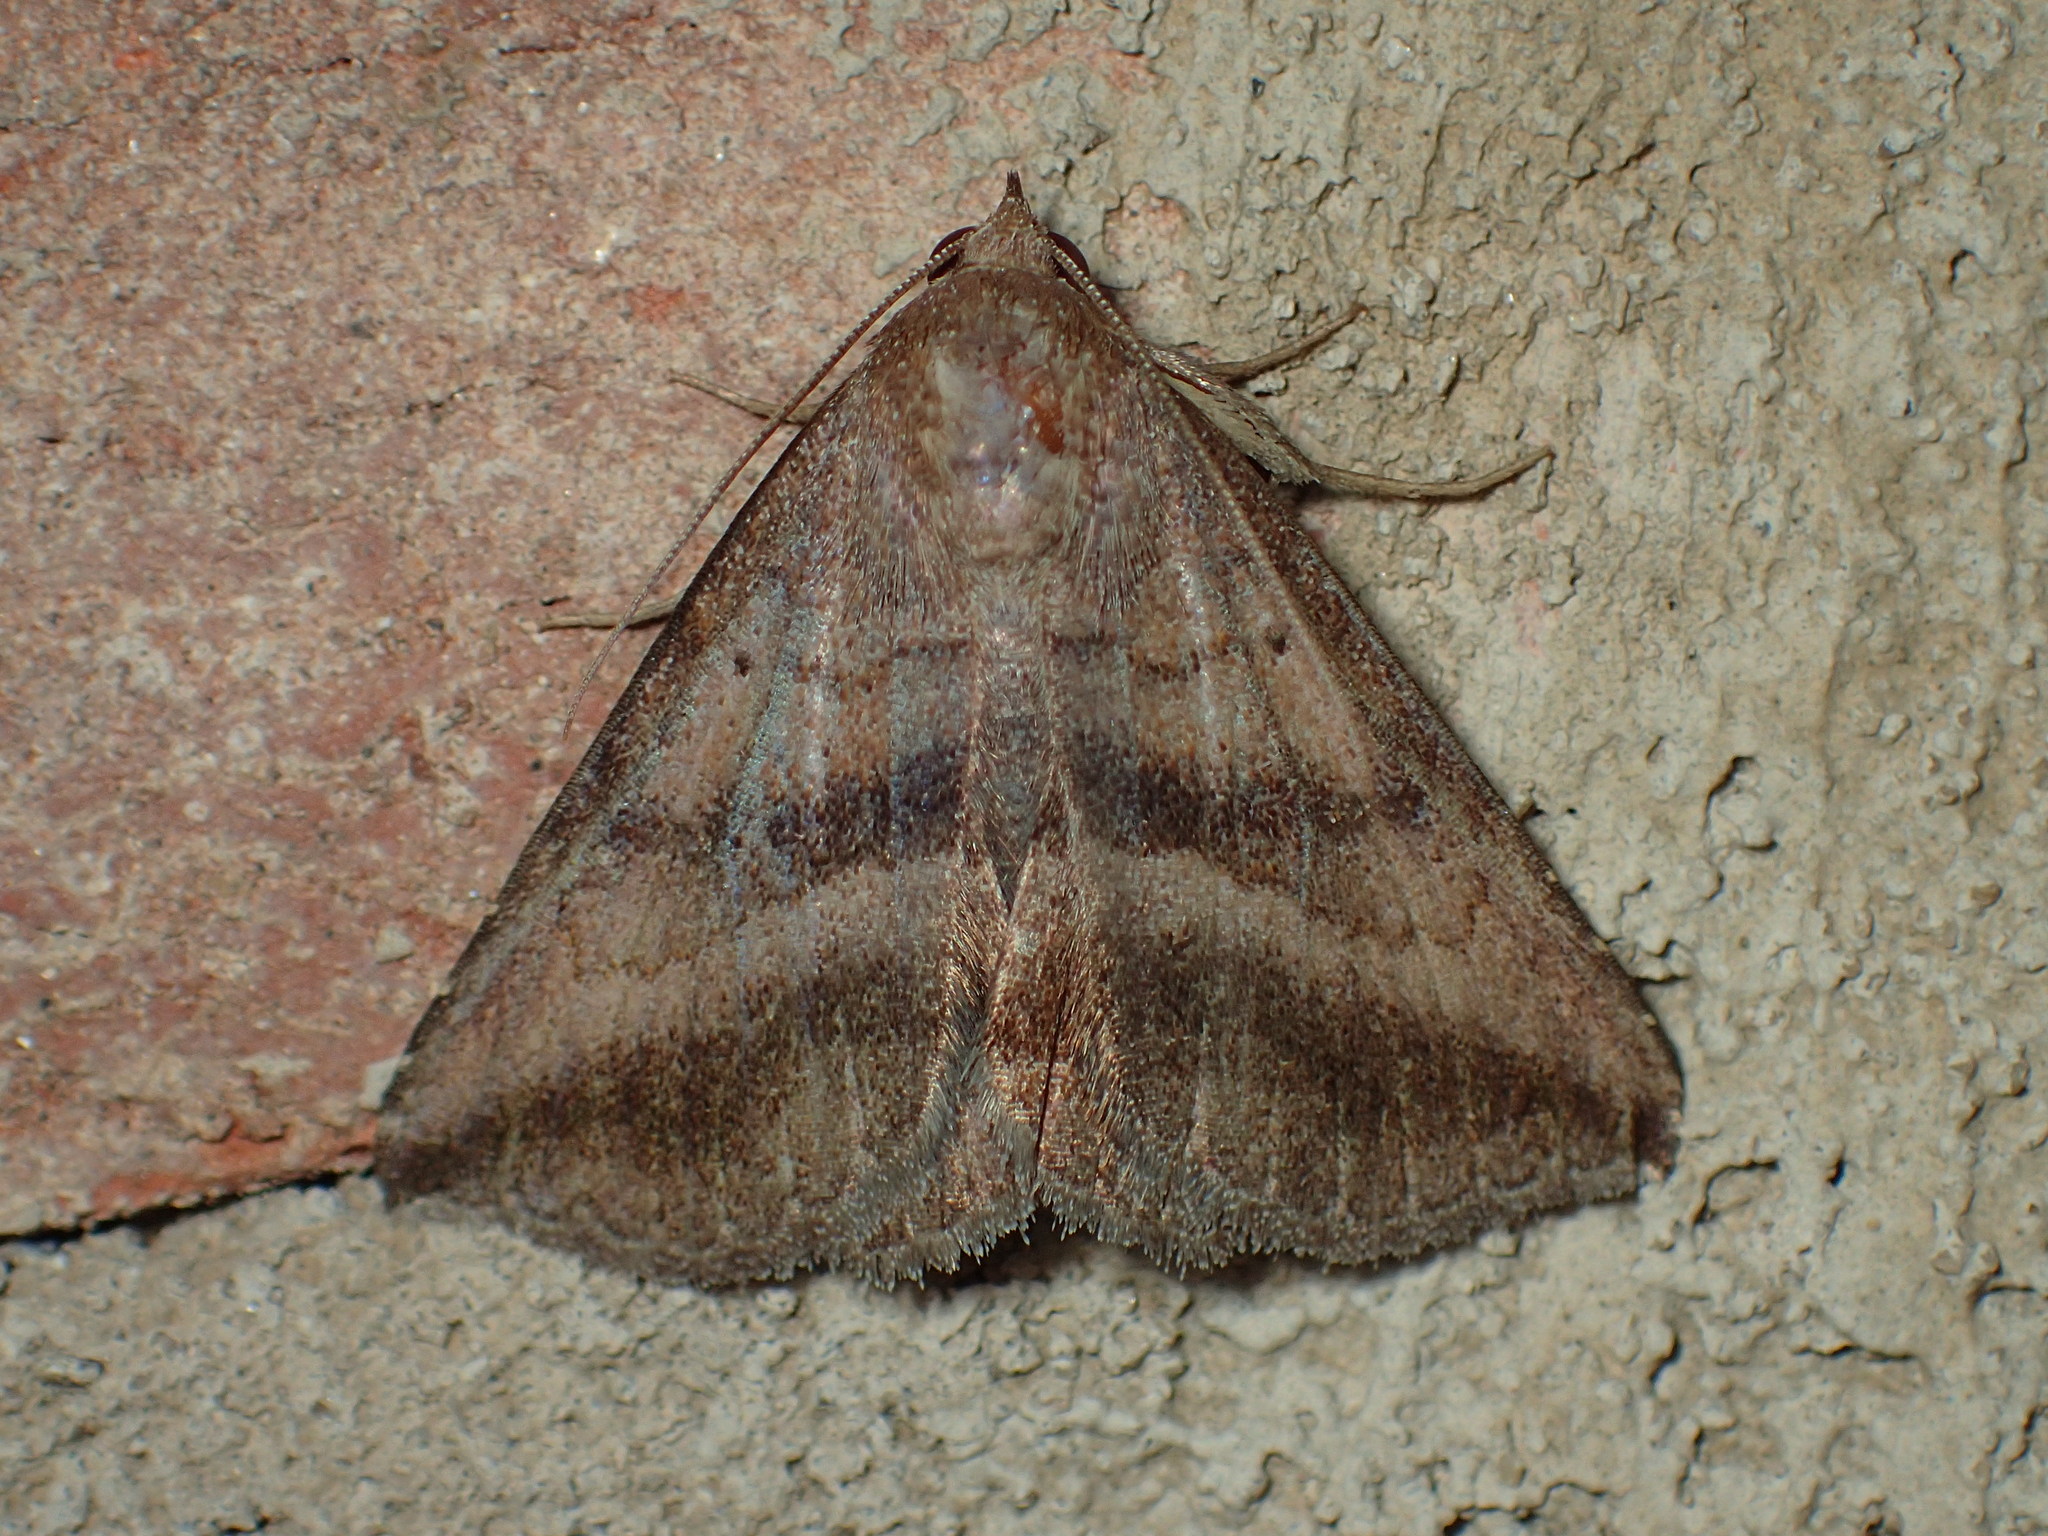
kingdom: Animalia
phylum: Arthropoda
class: Insecta
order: Lepidoptera
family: Erebidae
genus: Lesmone
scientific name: Lesmone detrahens
